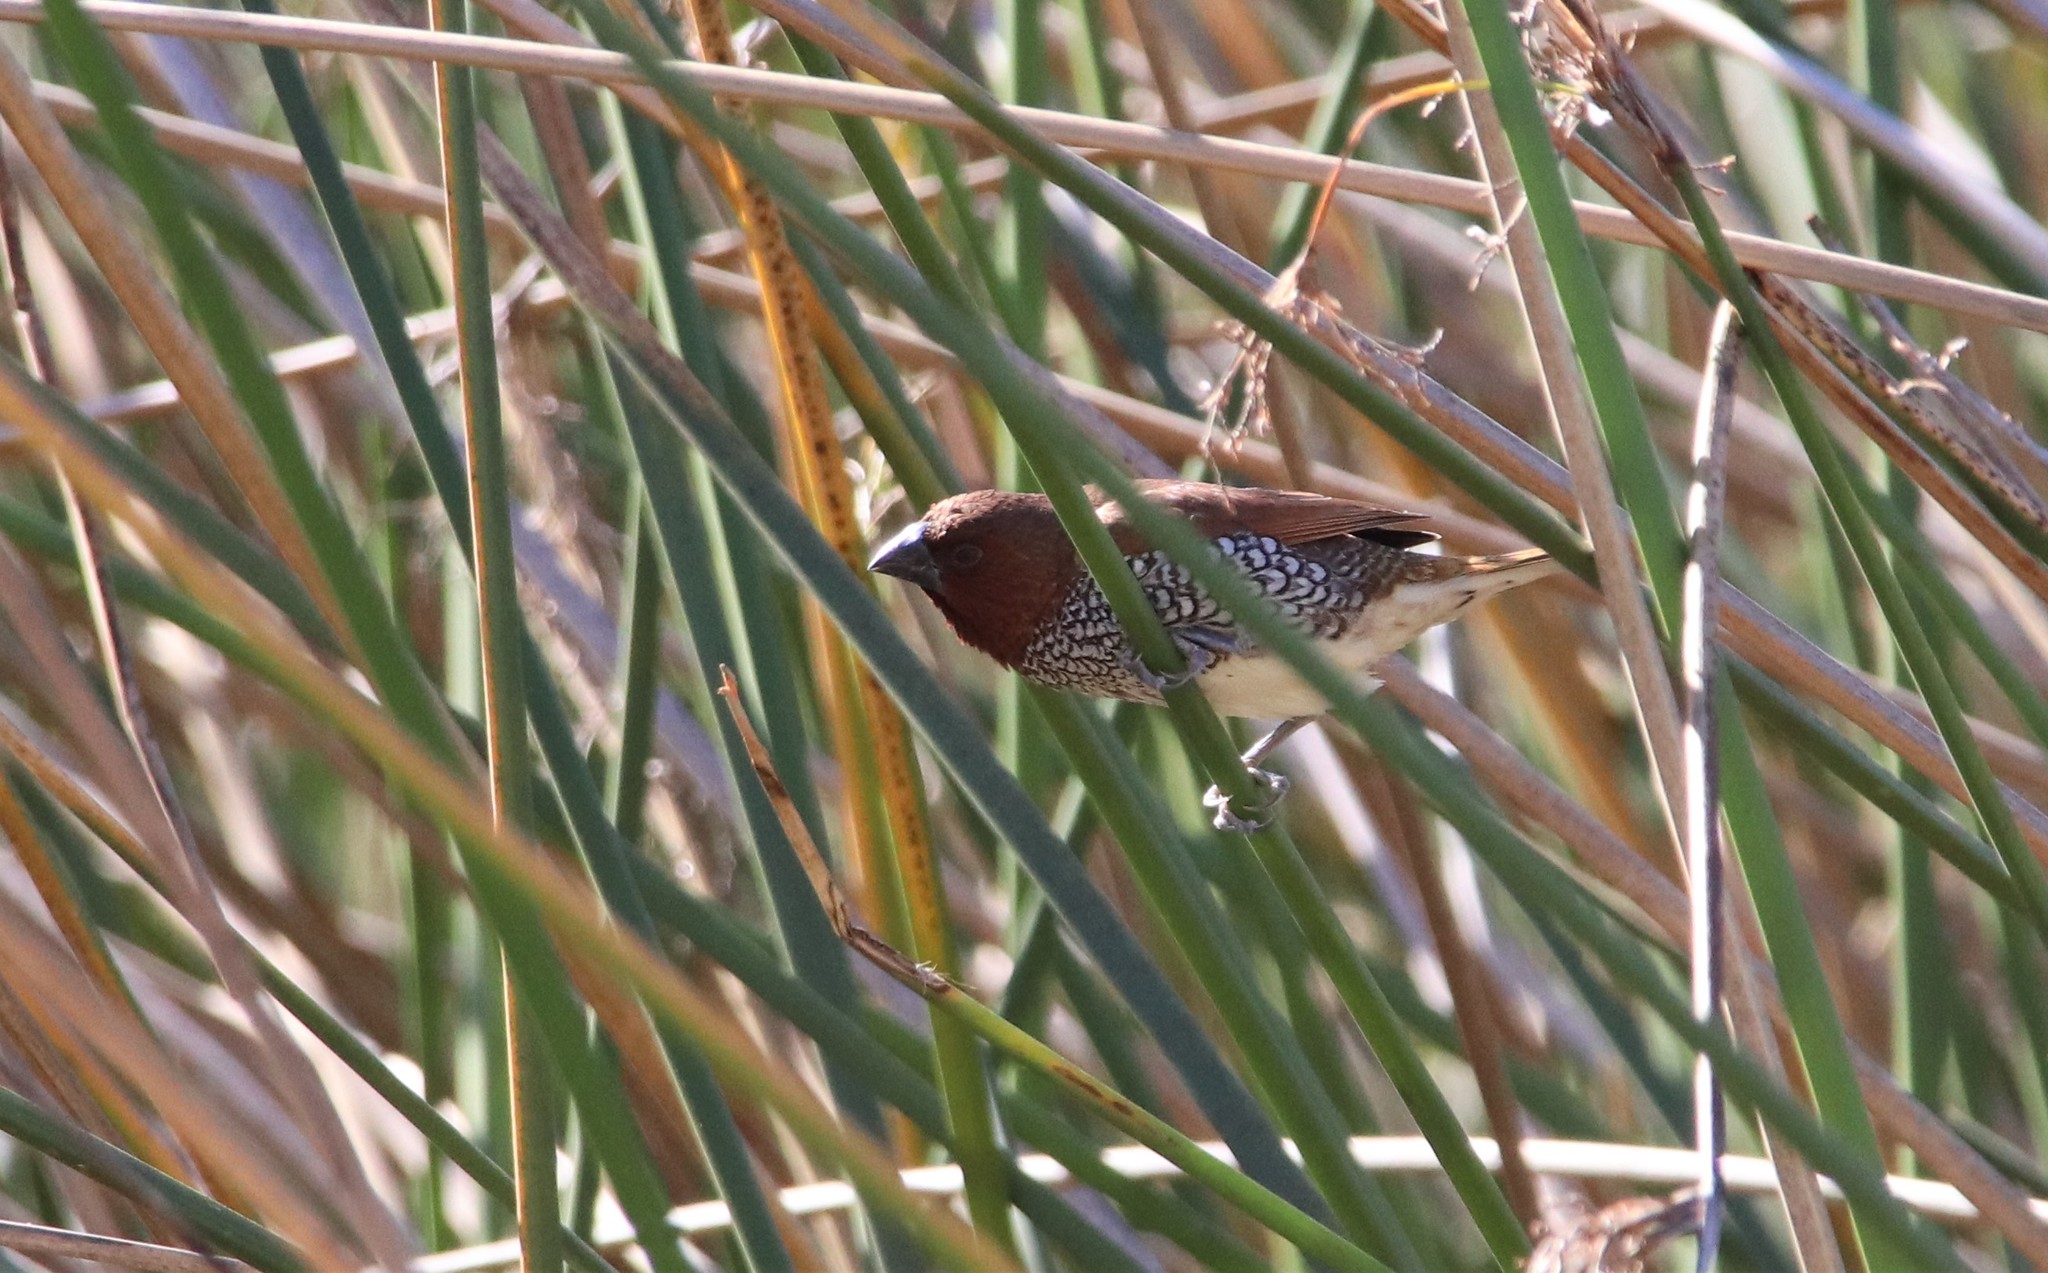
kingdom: Animalia
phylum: Chordata
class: Aves
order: Passeriformes
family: Estrildidae
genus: Lonchura
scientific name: Lonchura punctulata
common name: Scaly-breasted munia
